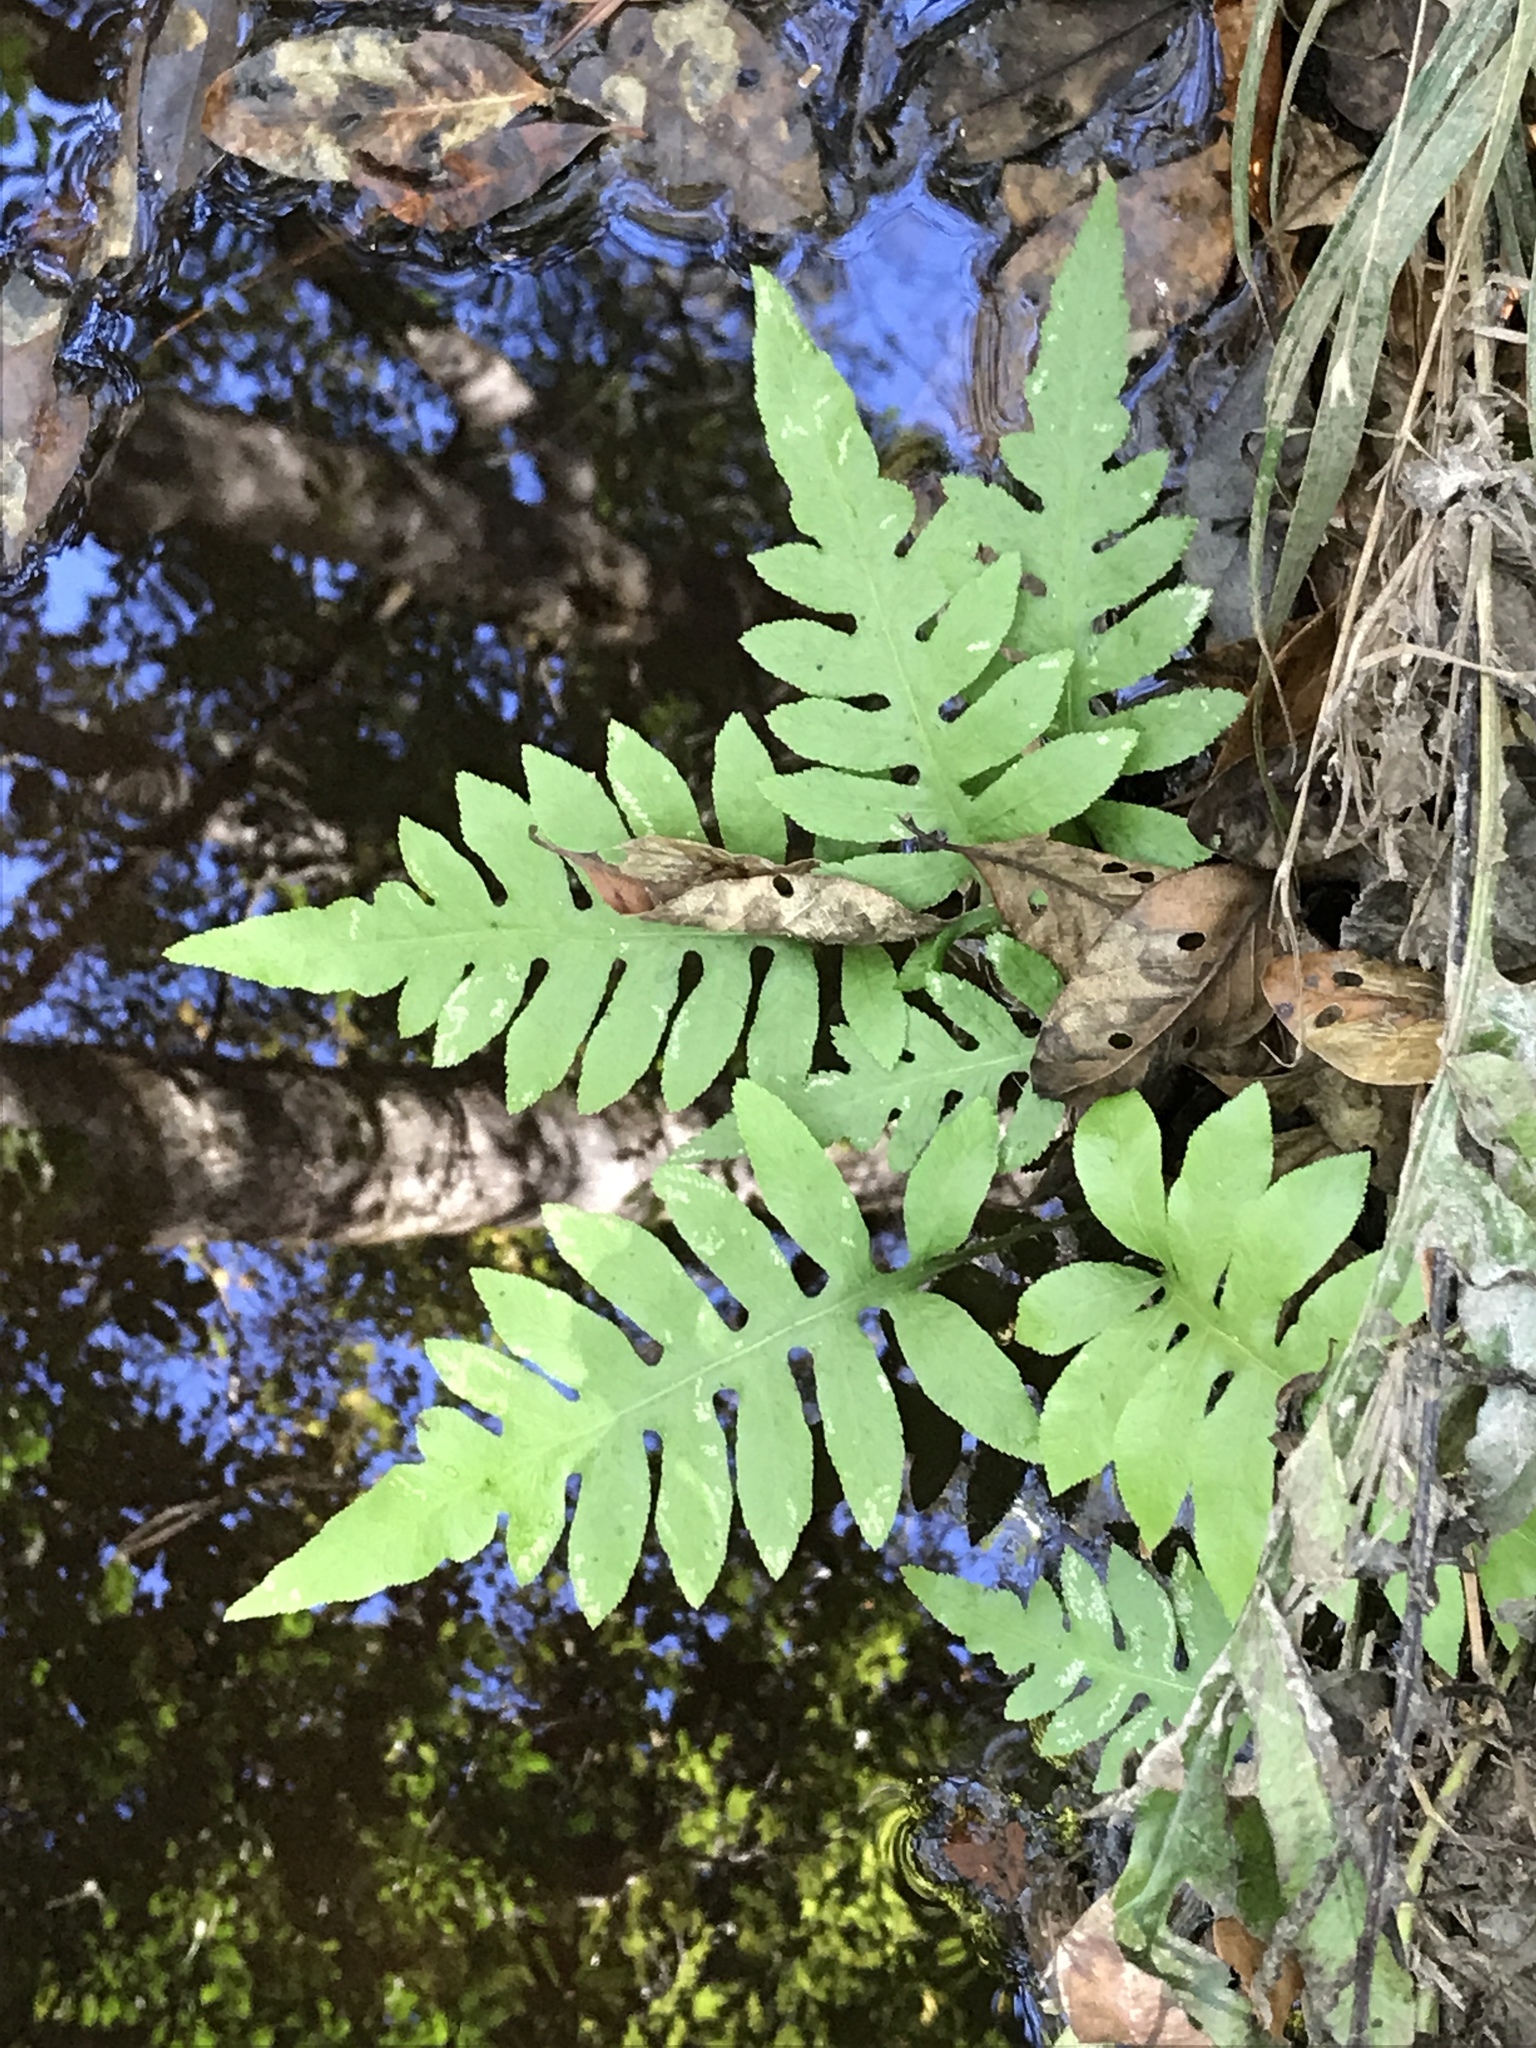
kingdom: Plantae
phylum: Tracheophyta
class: Polypodiopsida
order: Polypodiales
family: Blechnaceae
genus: Lorinseria
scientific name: Lorinseria areolata
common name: Dwarf chain fern
